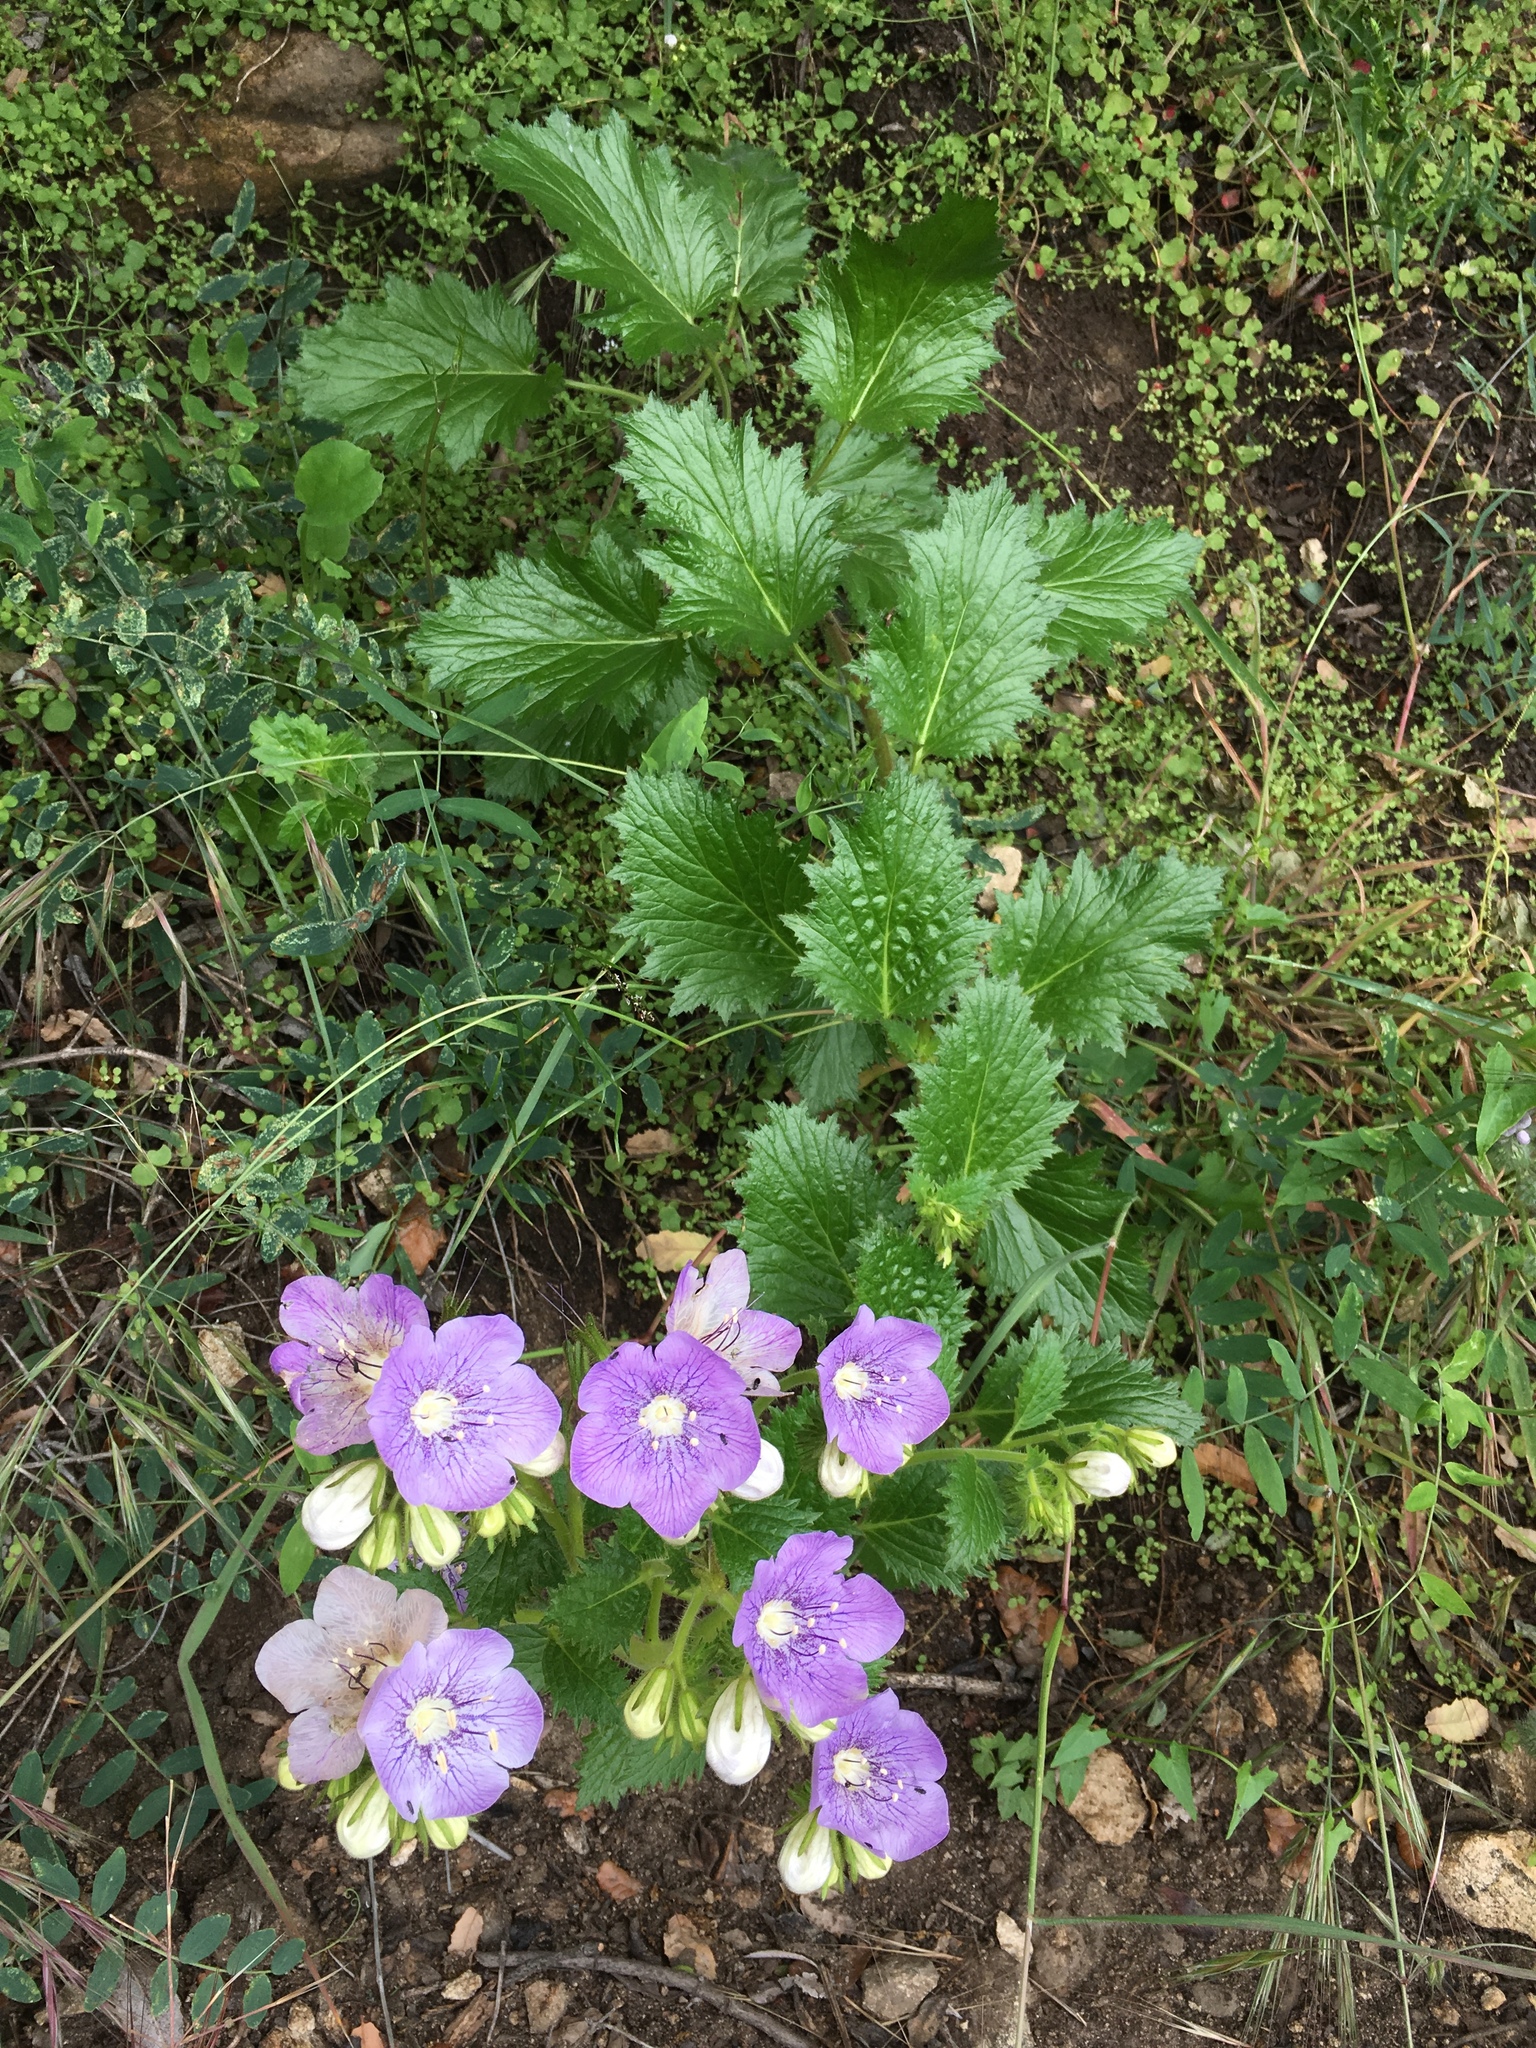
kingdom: Plantae
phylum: Tracheophyta
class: Magnoliopsida
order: Boraginales
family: Hydrophyllaceae
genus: Phacelia
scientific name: Phacelia grandiflora
